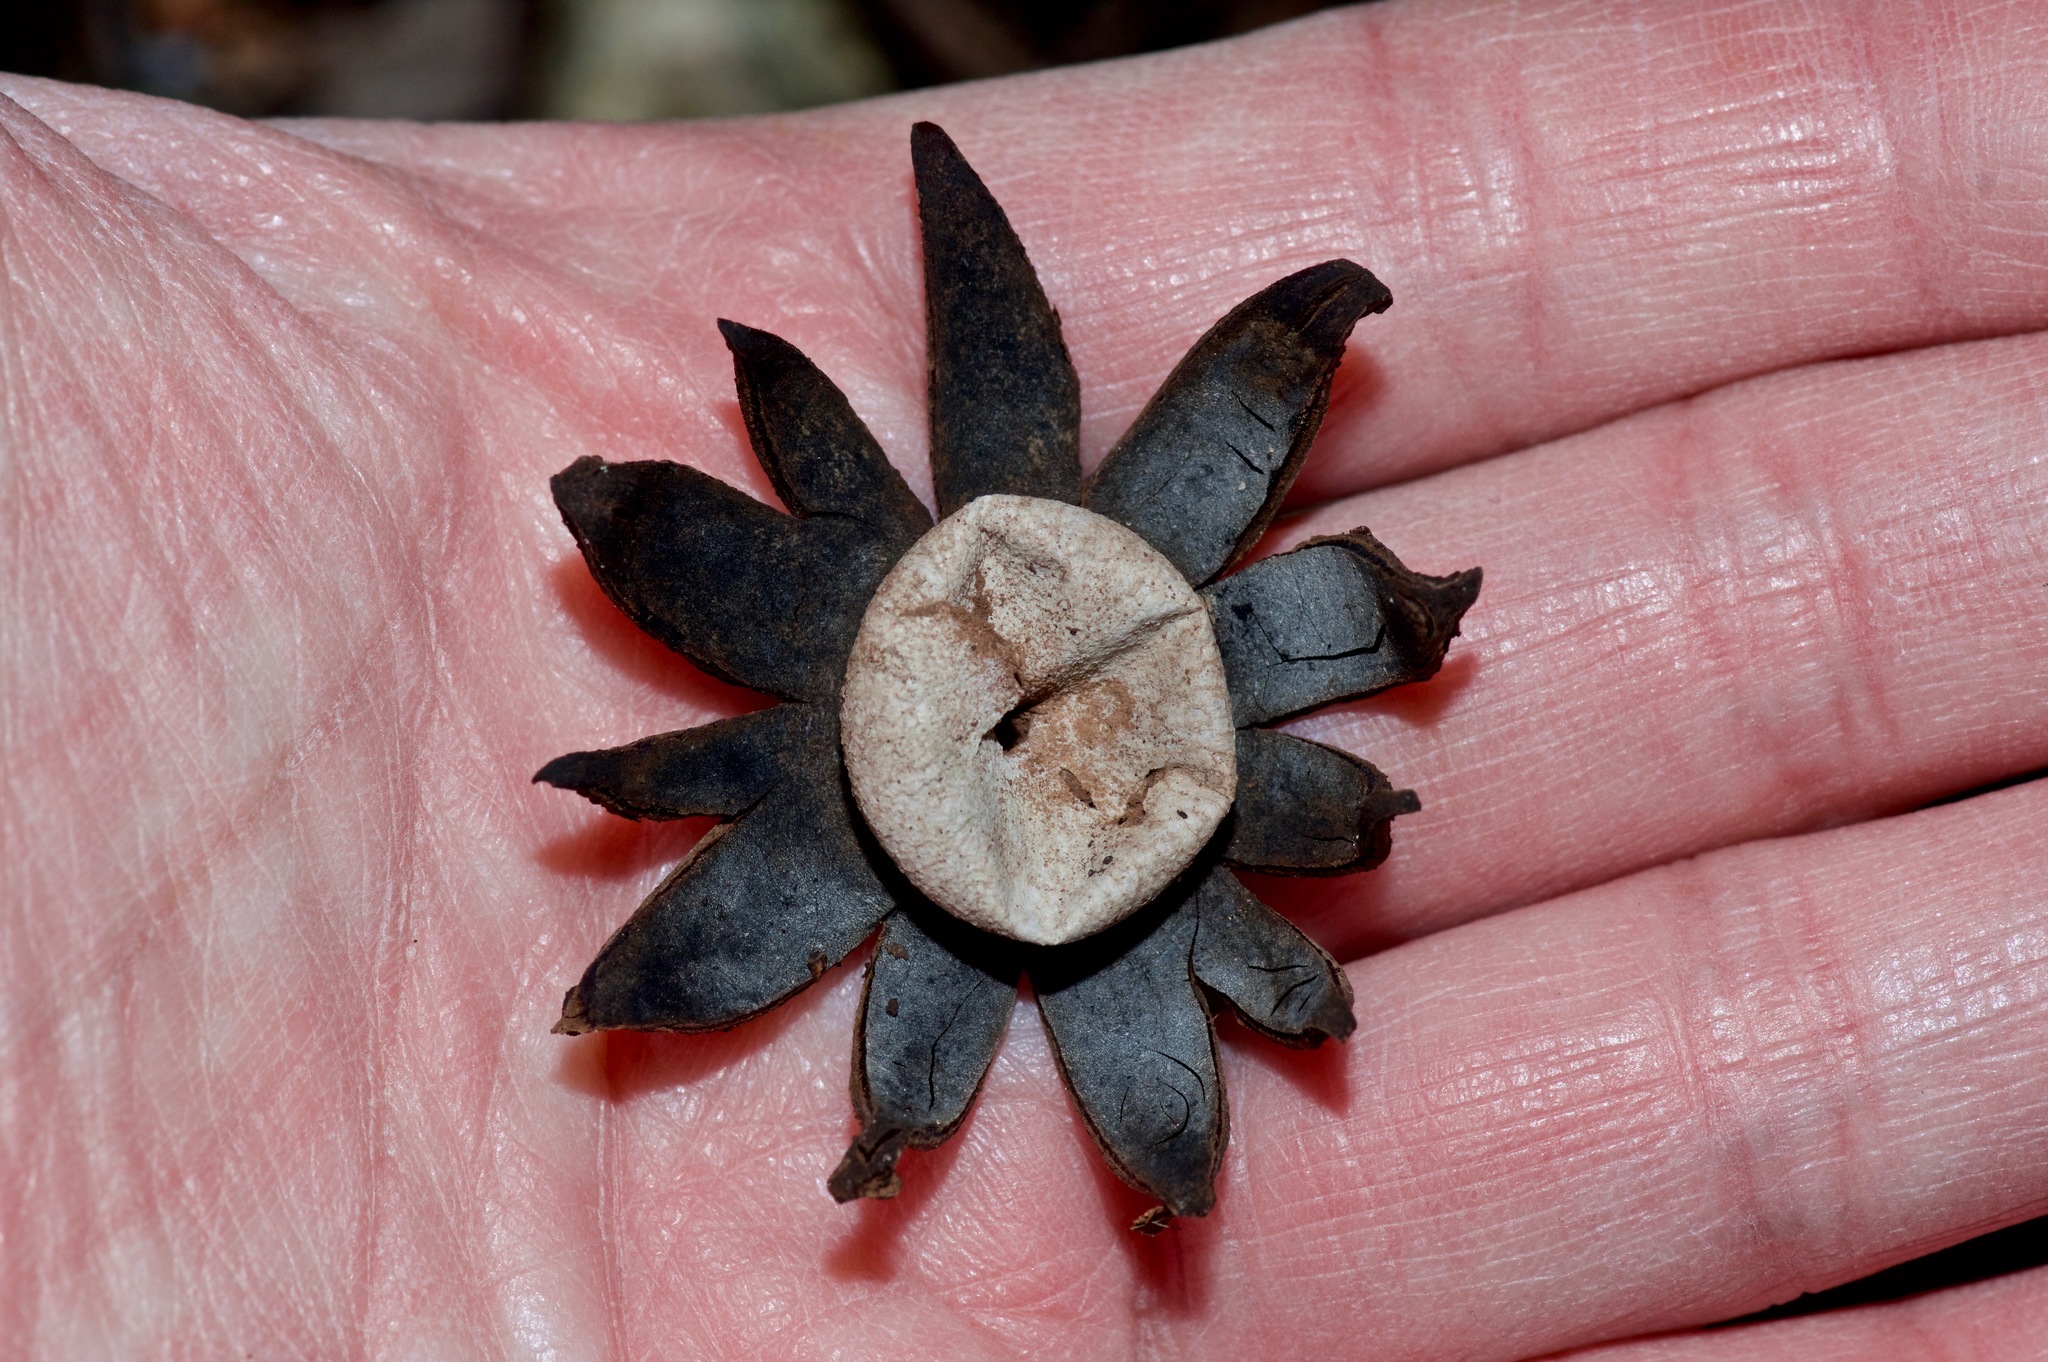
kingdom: Fungi
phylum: Basidiomycota
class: Agaricomycetes
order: Boletales
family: Diplocystidiaceae
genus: Astraeus
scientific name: Astraeus morganii
